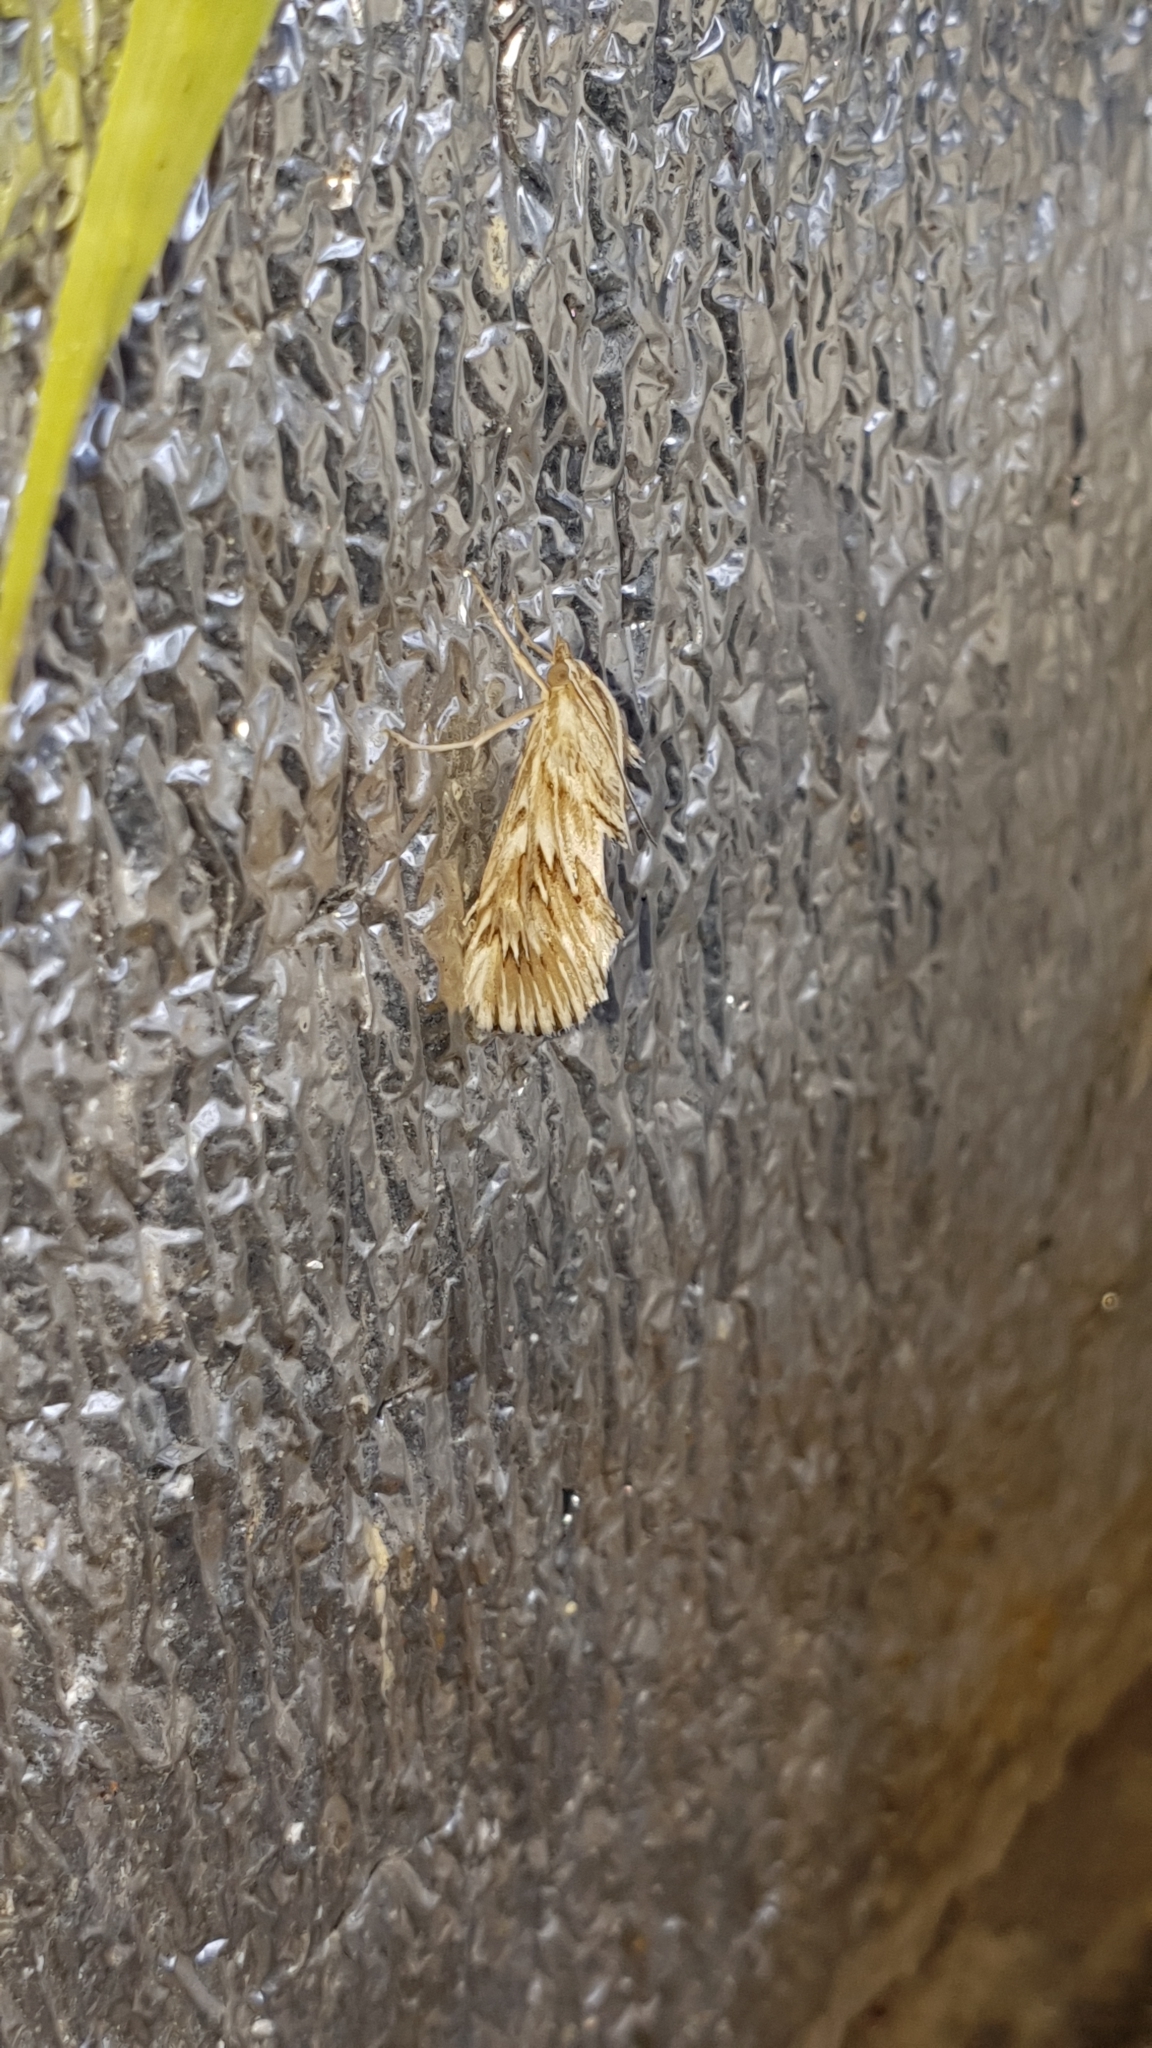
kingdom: Animalia
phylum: Arthropoda
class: Insecta
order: Lepidoptera
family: Crambidae
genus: Cynaeda
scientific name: Cynaeda dentalis
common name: Starry pearl
